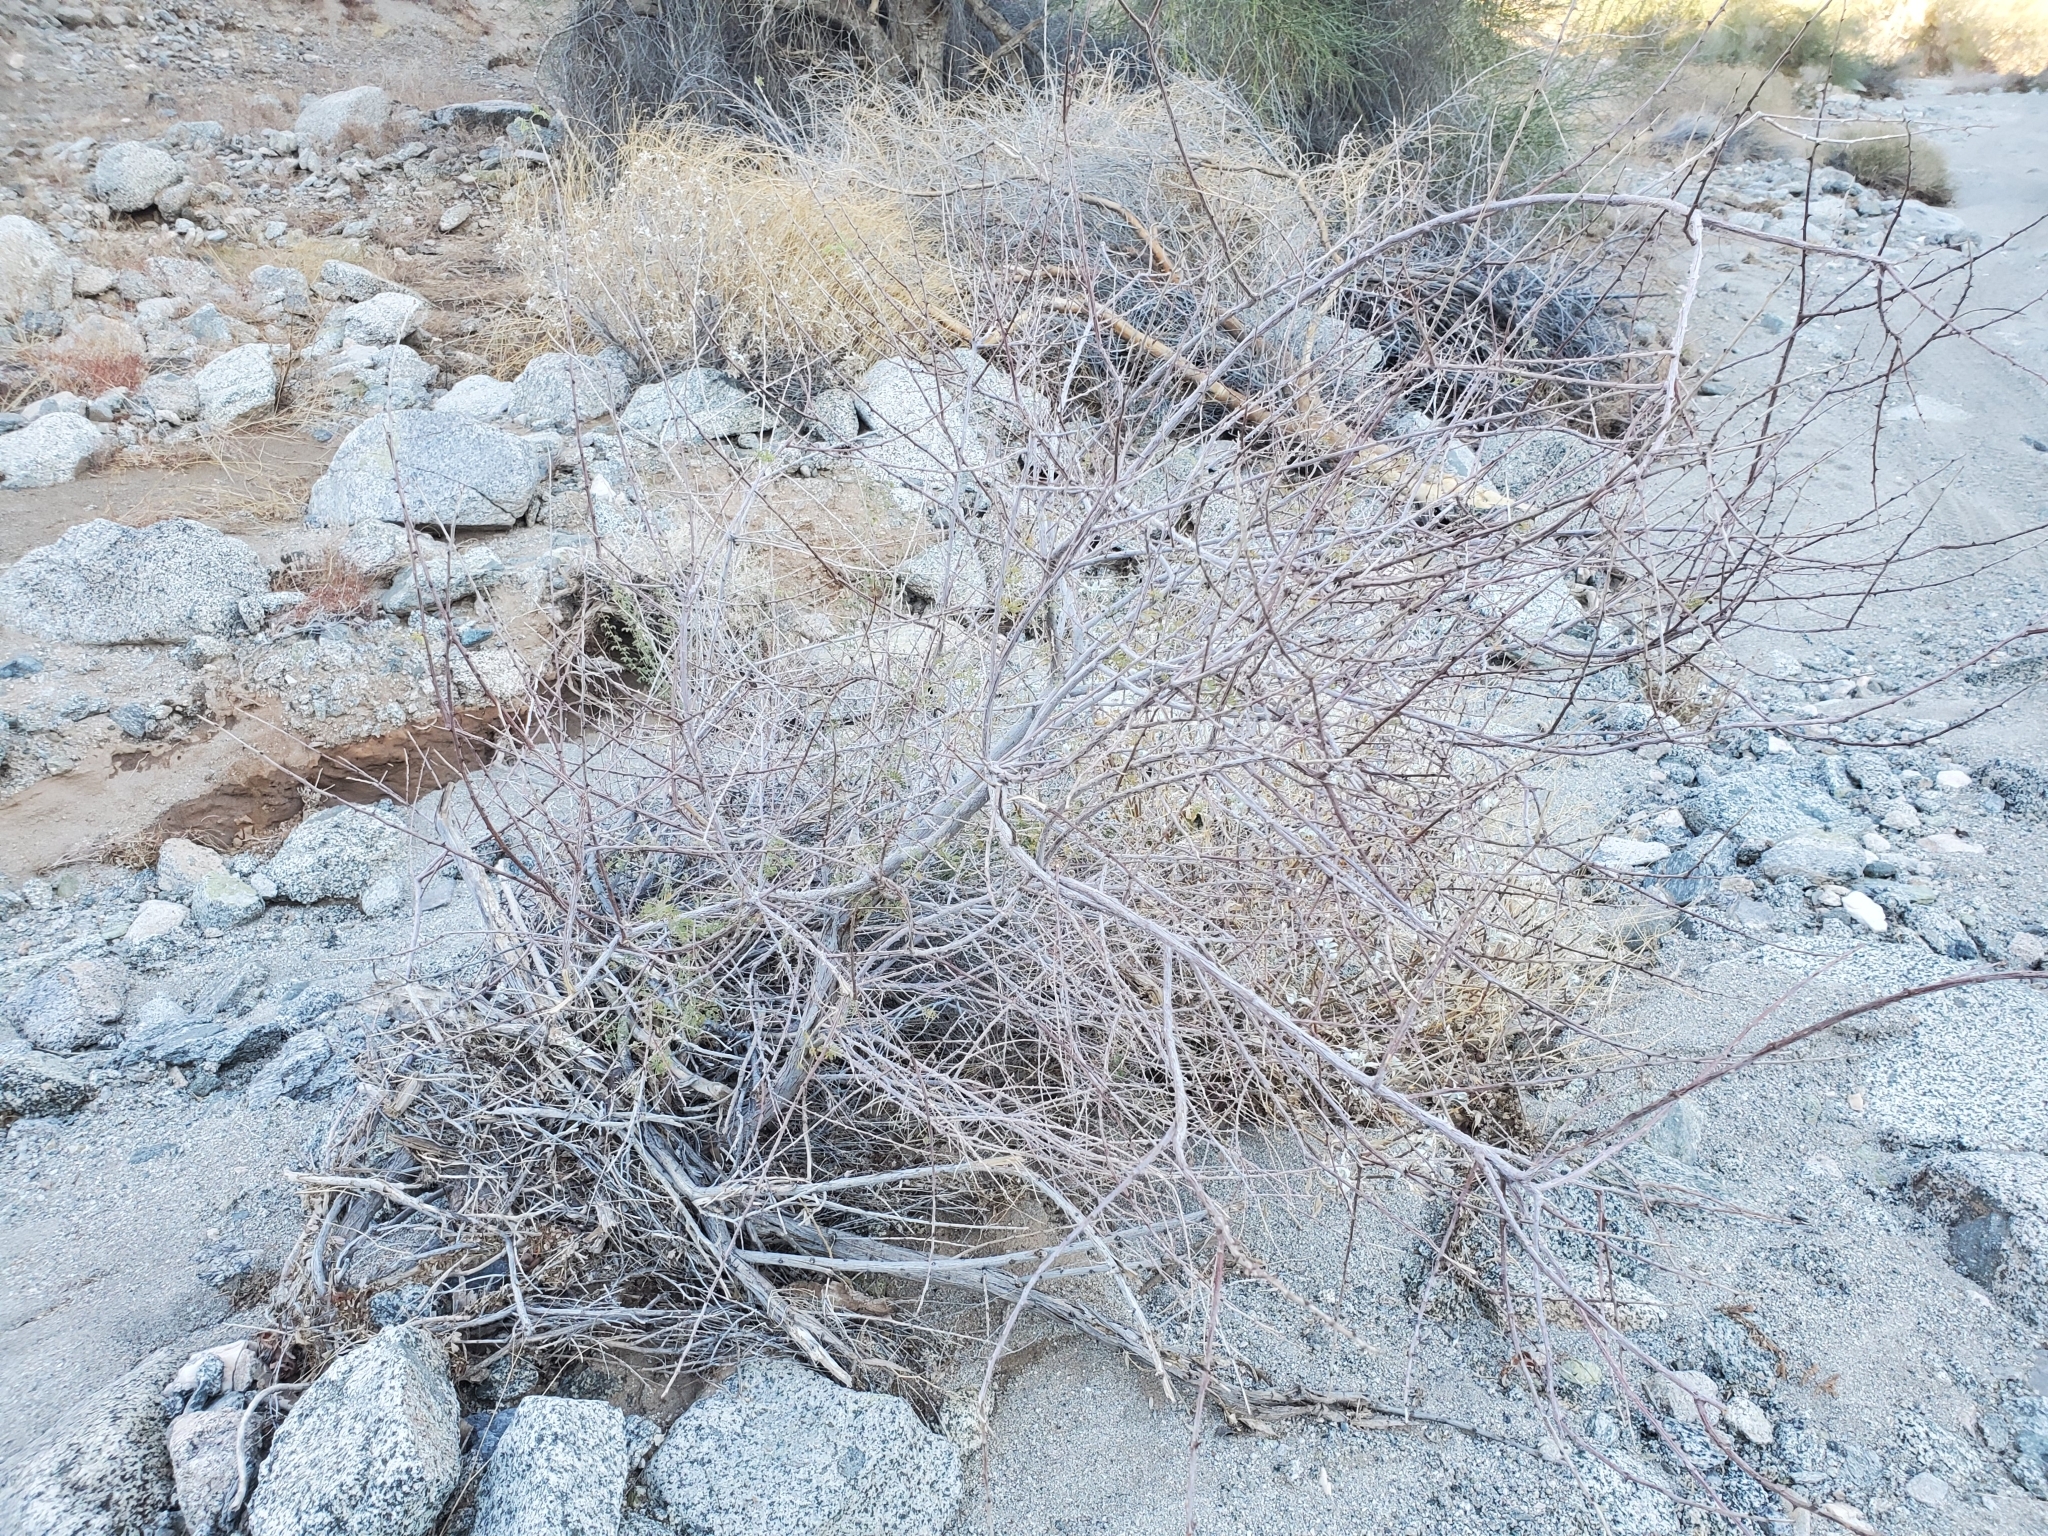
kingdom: Plantae
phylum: Tracheophyta
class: Magnoliopsida
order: Fabales
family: Fabaceae
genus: Senegalia
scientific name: Senegalia greggii
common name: Texas-mimosa
